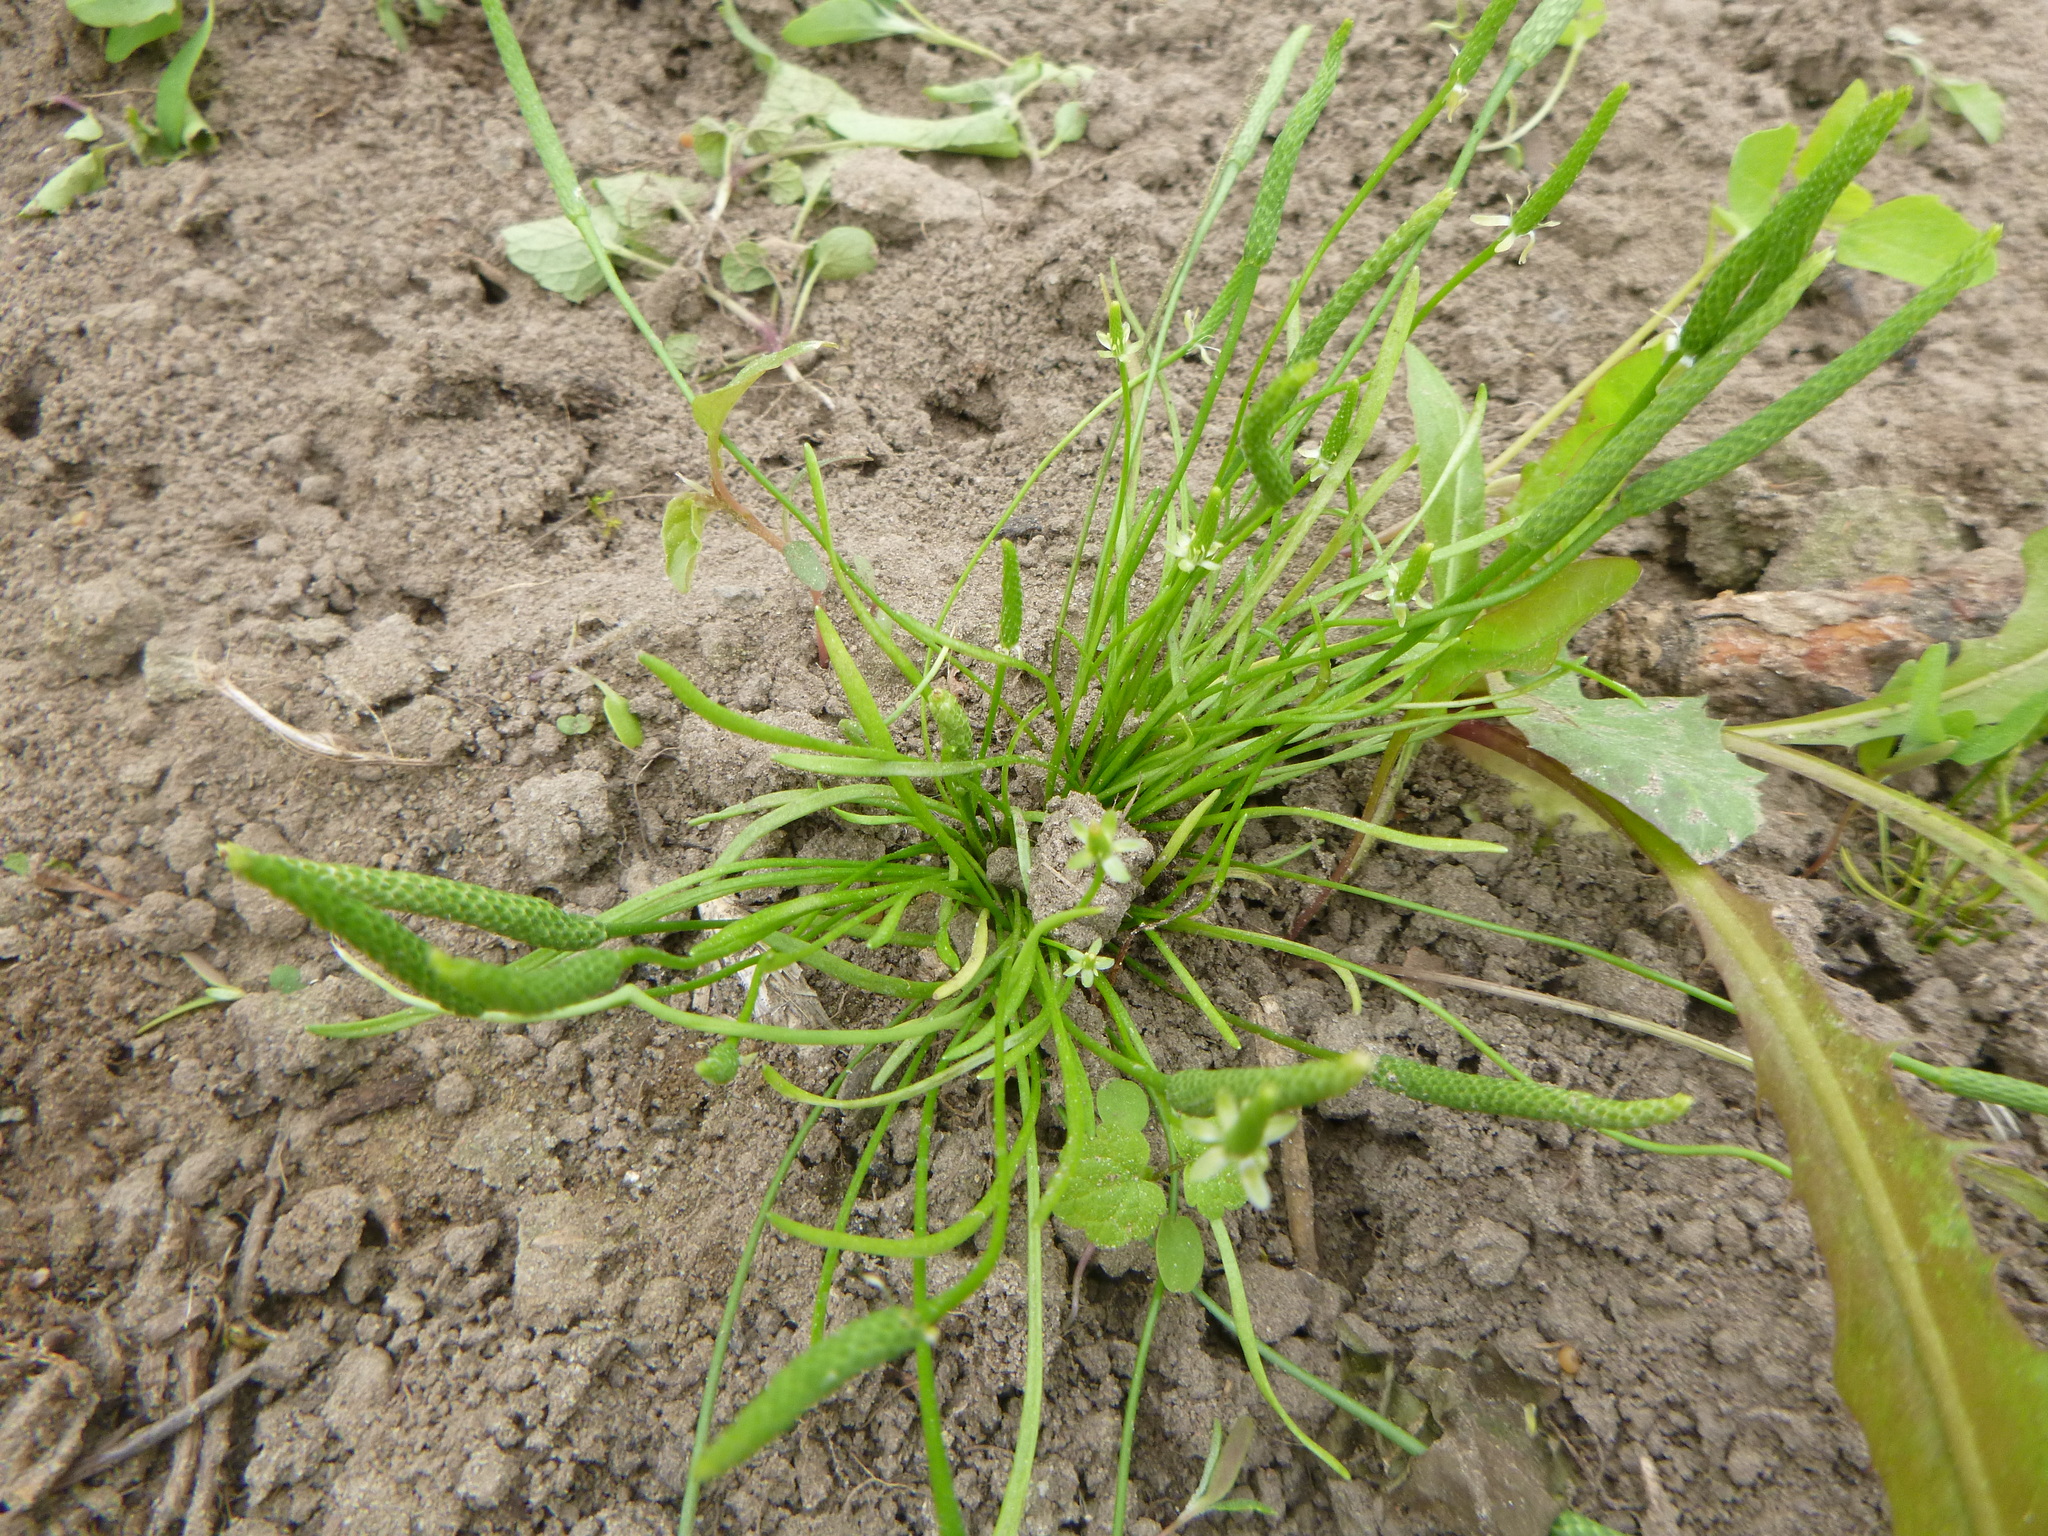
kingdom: Plantae
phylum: Tracheophyta
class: Magnoliopsida
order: Ranunculales
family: Ranunculaceae
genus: Myosurus
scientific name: Myosurus minimus
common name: Mousetail
